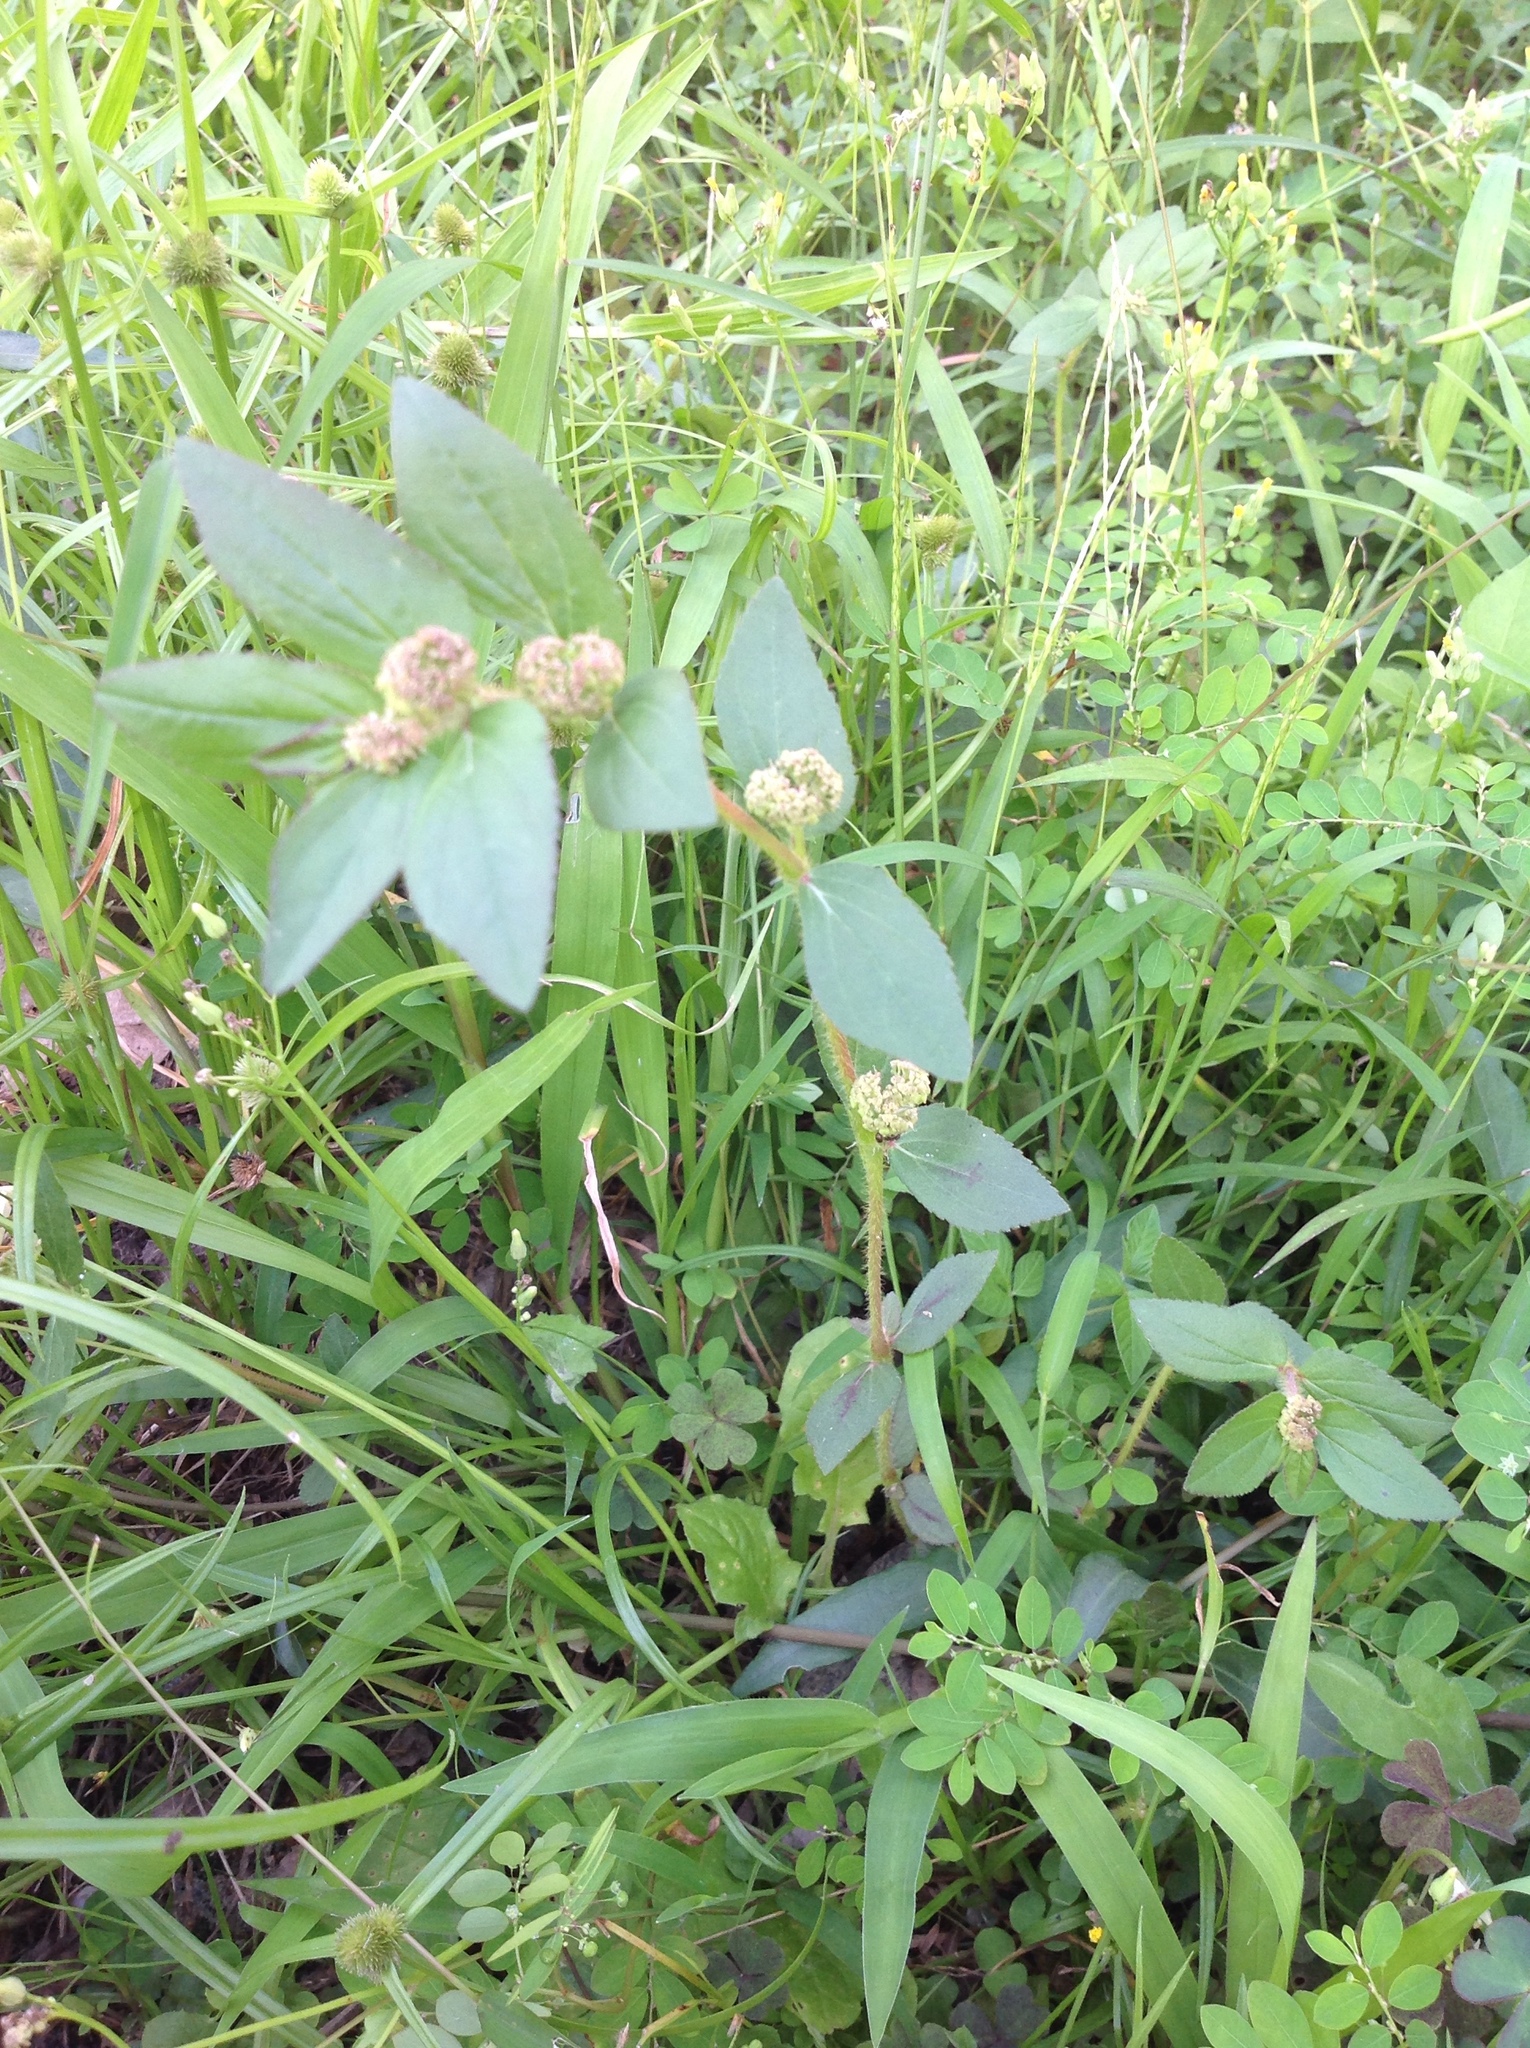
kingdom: Plantae
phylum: Tracheophyta
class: Magnoliopsida
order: Malpighiales
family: Euphorbiaceae
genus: Euphorbia
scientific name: Euphorbia hirta
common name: Pillpod sandmat
